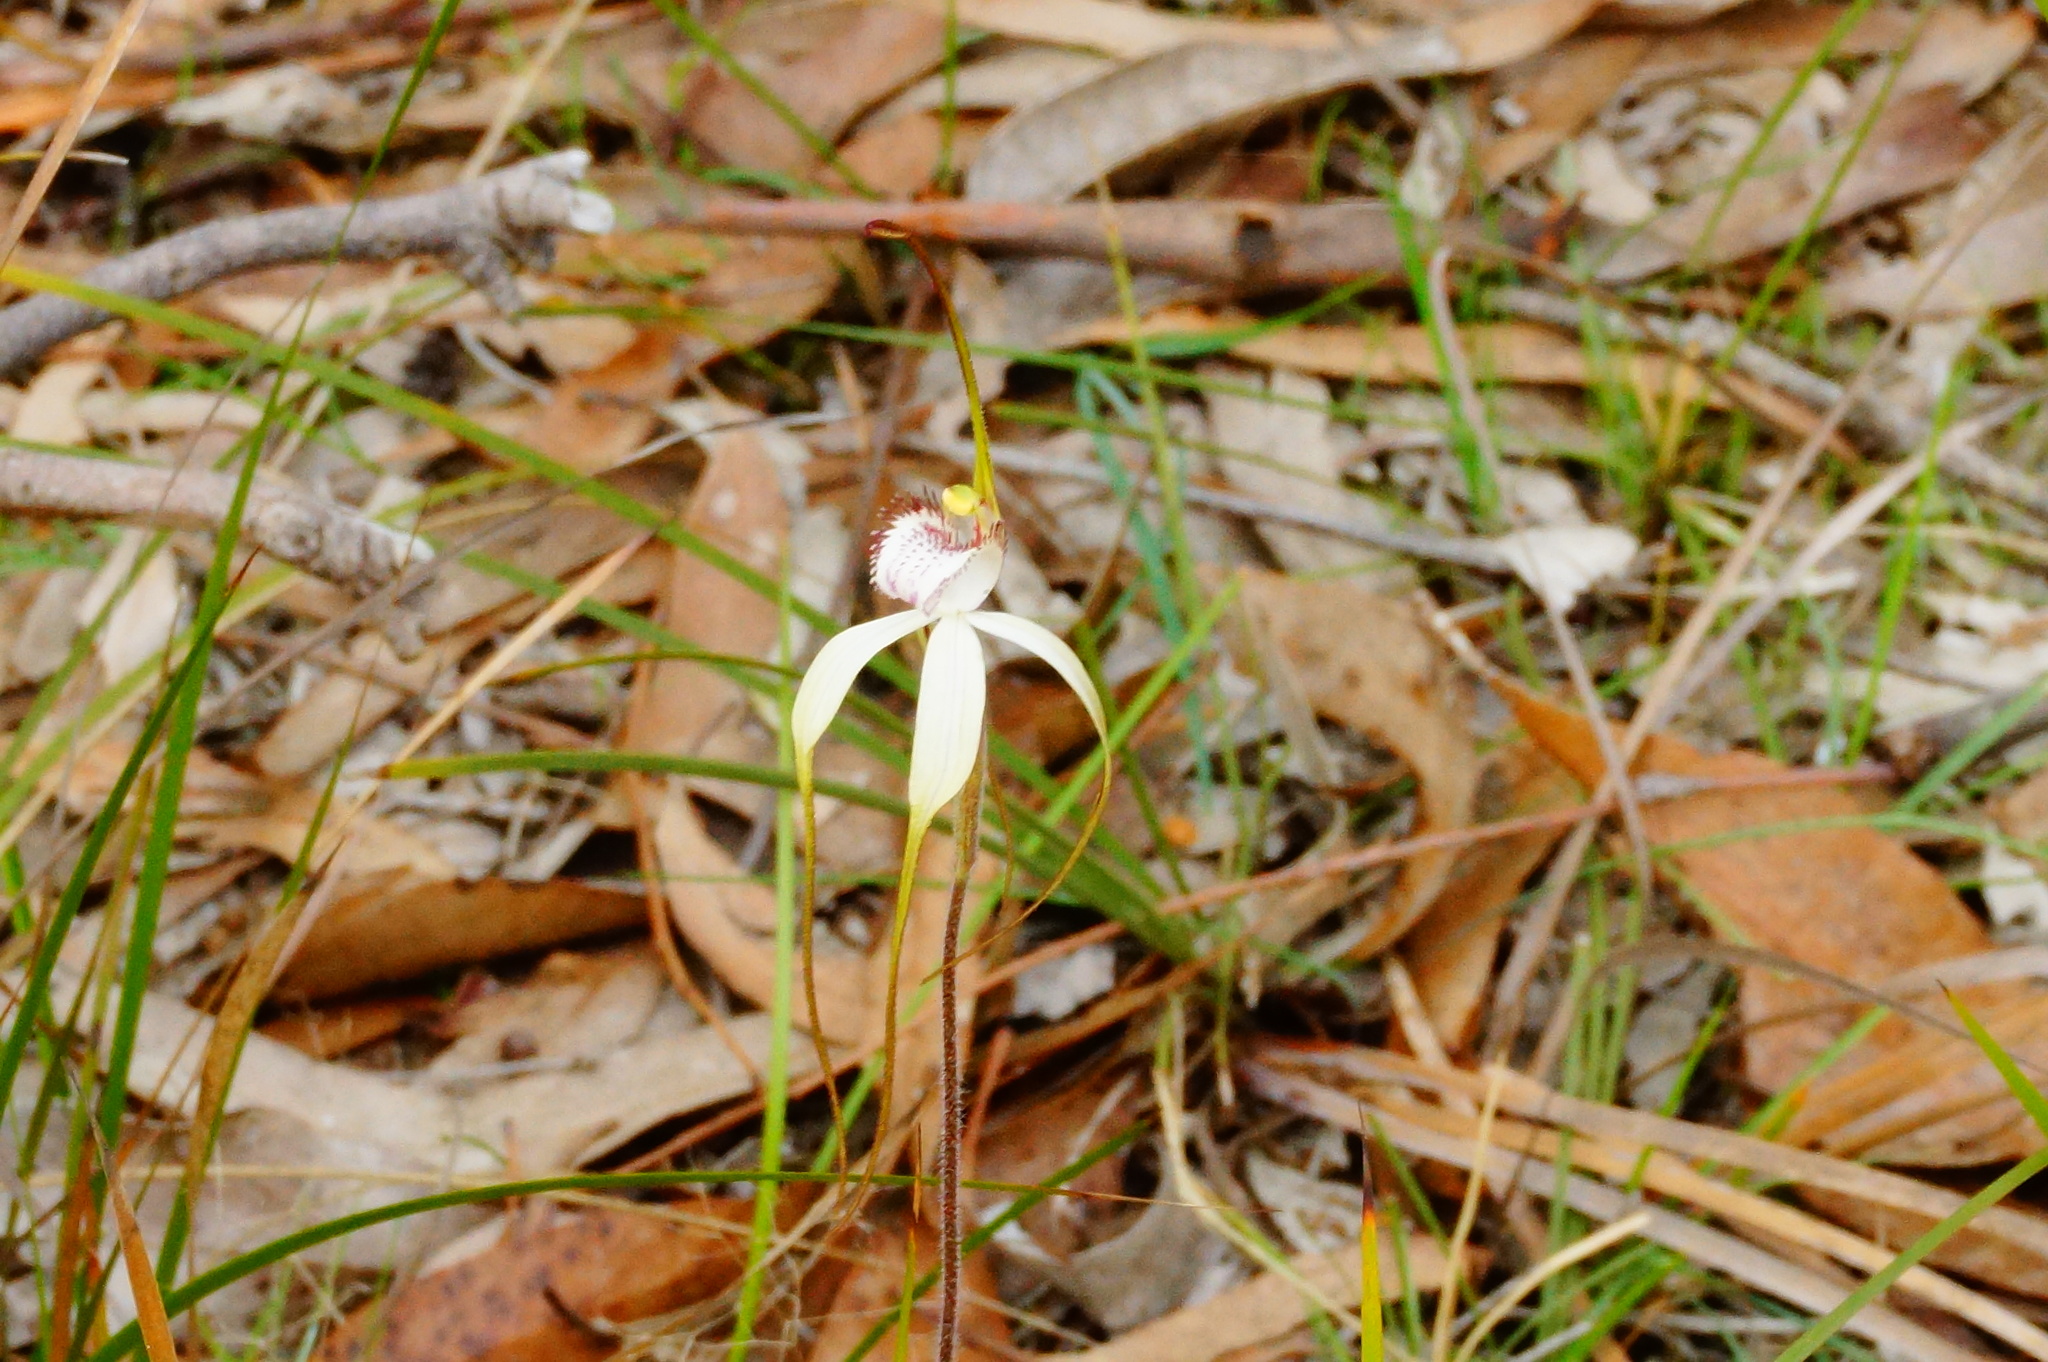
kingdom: Plantae
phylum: Tracheophyta
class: Liliopsida
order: Asparagales
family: Orchidaceae
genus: Caladenia
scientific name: Caladenia venusta
